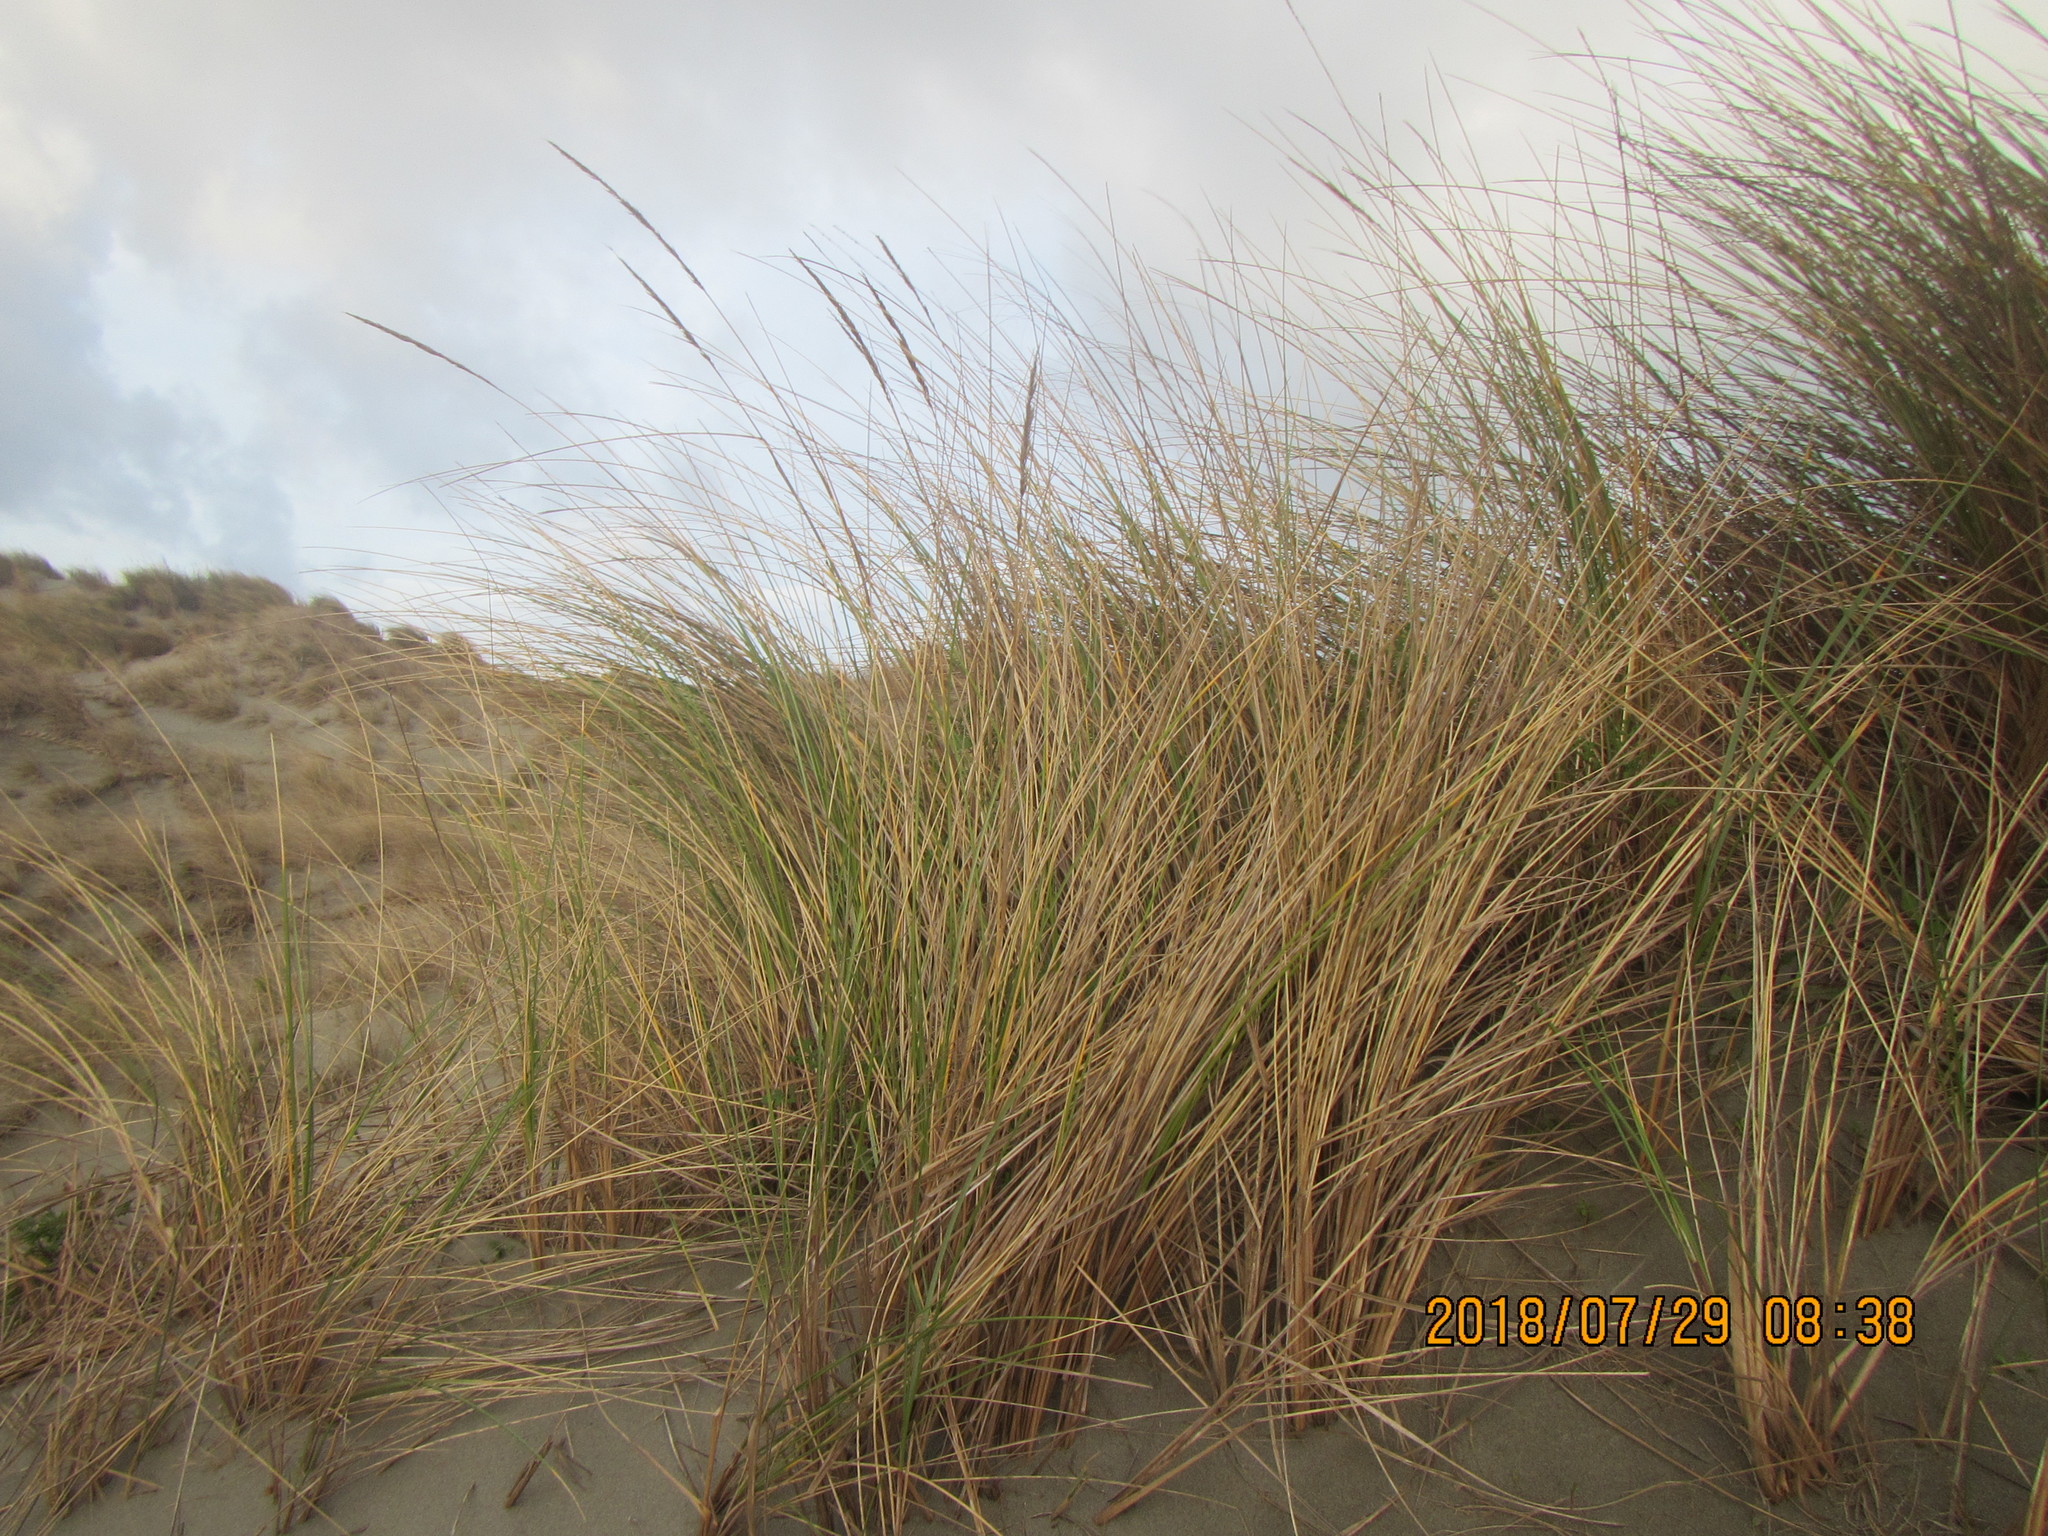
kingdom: Plantae
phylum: Tracheophyta
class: Liliopsida
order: Poales
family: Poaceae
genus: Calamagrostis
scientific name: Calamagrostis arenaria
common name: European beachgrass
